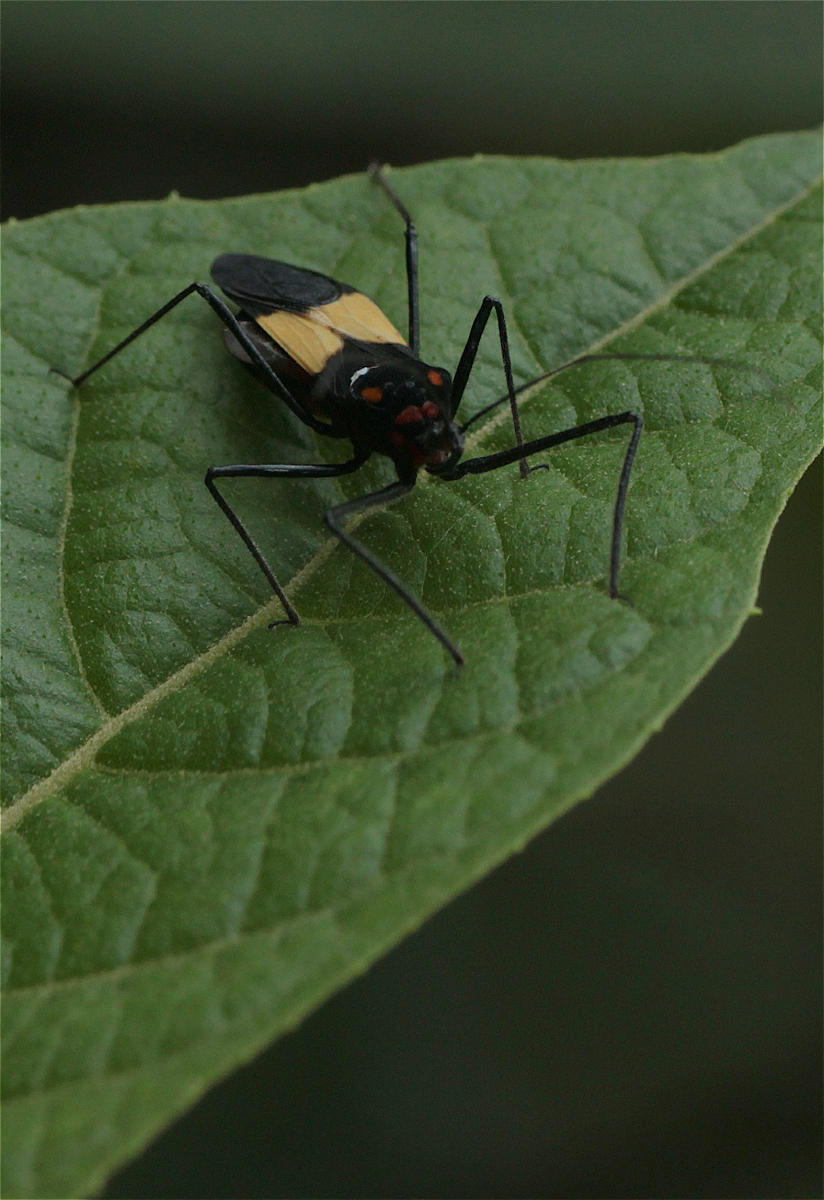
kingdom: Animalia
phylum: Arthropoda
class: Insecta
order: Hemiptera
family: Reduviidae
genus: Zelus
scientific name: Zelus means
